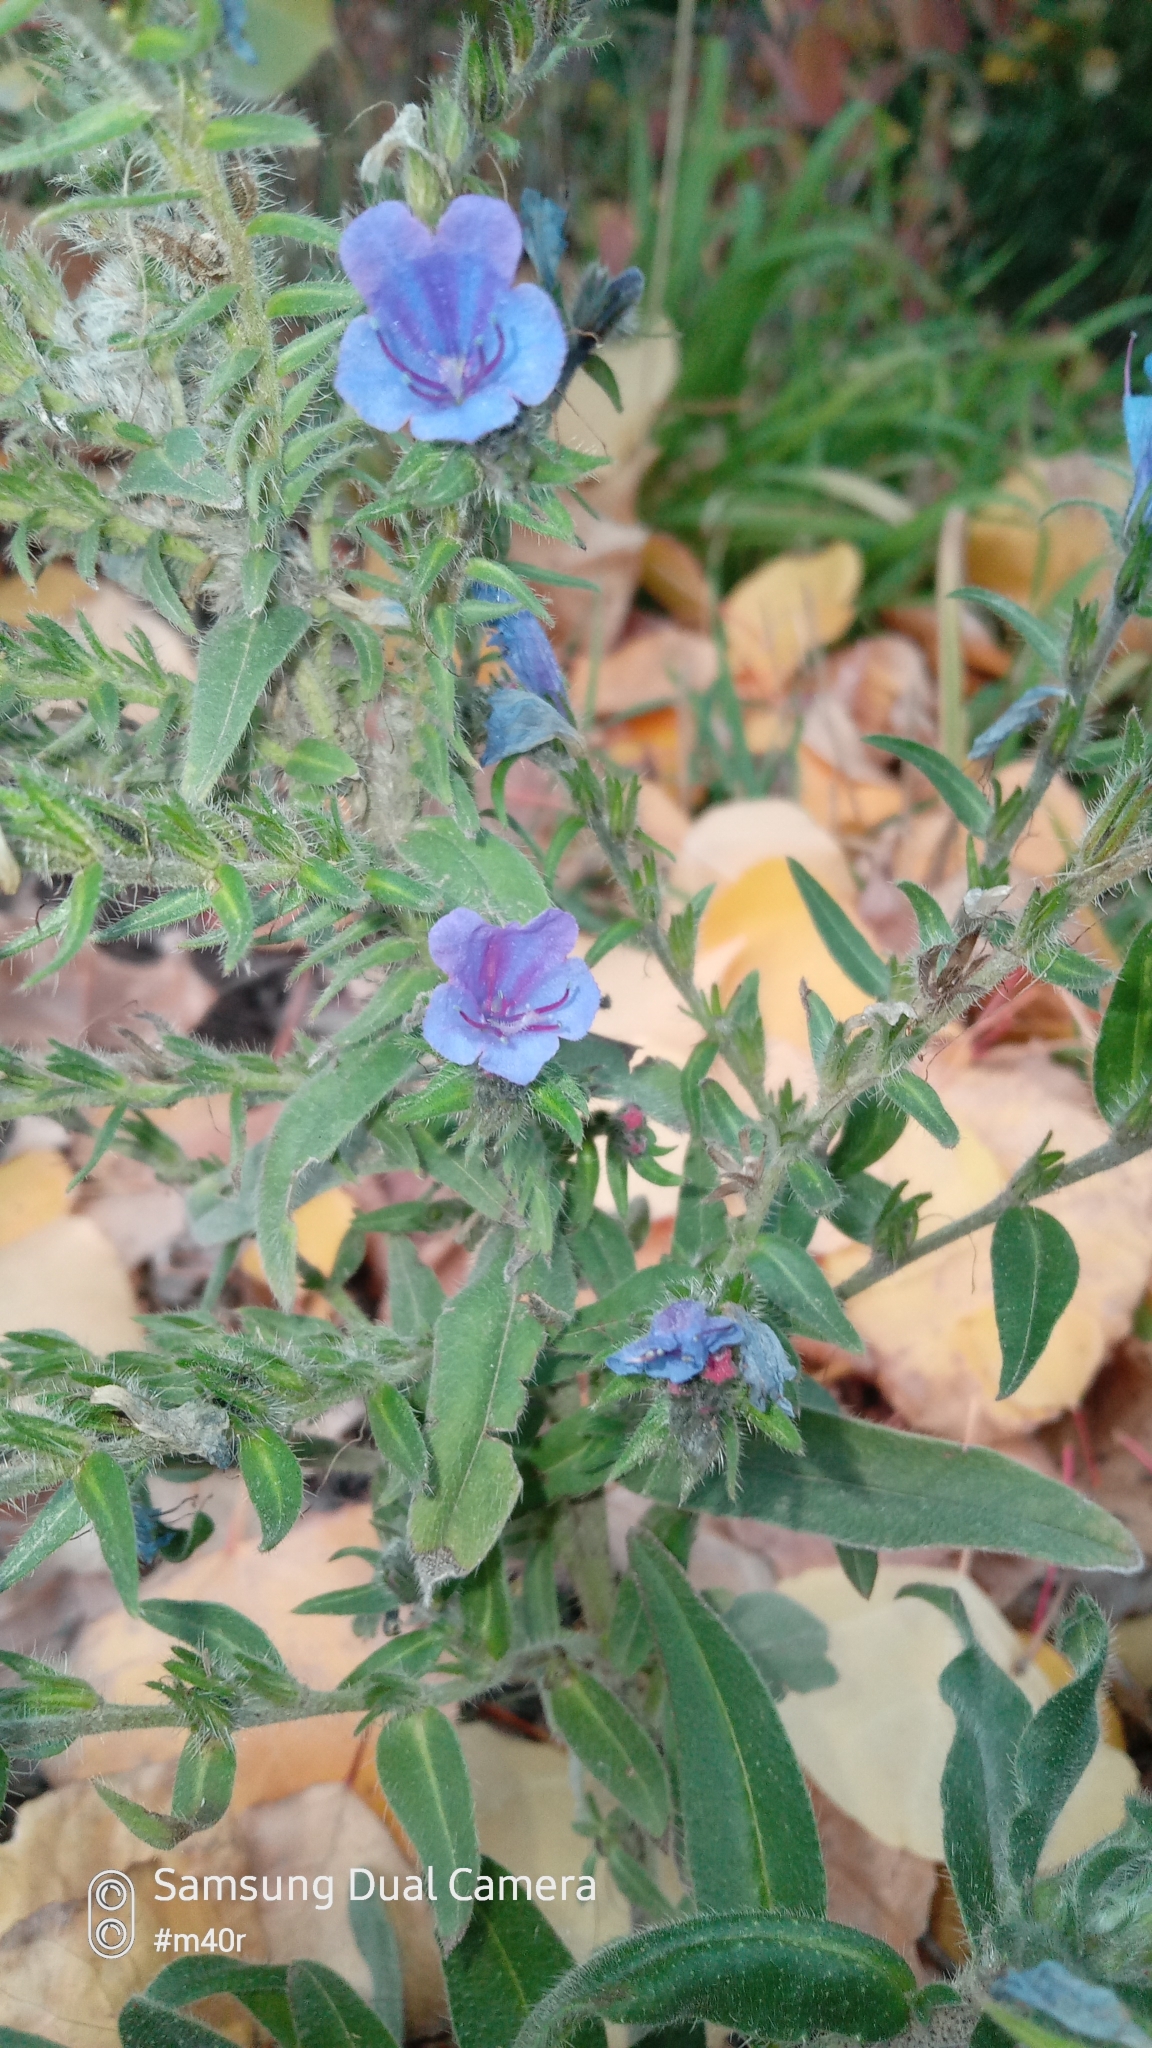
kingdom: Plantae
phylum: Tracheophyta
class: Magnoliopsida
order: Boraginales
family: Boraginaceae
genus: Echium
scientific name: Echium vulgare
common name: Common viper's bugloss
